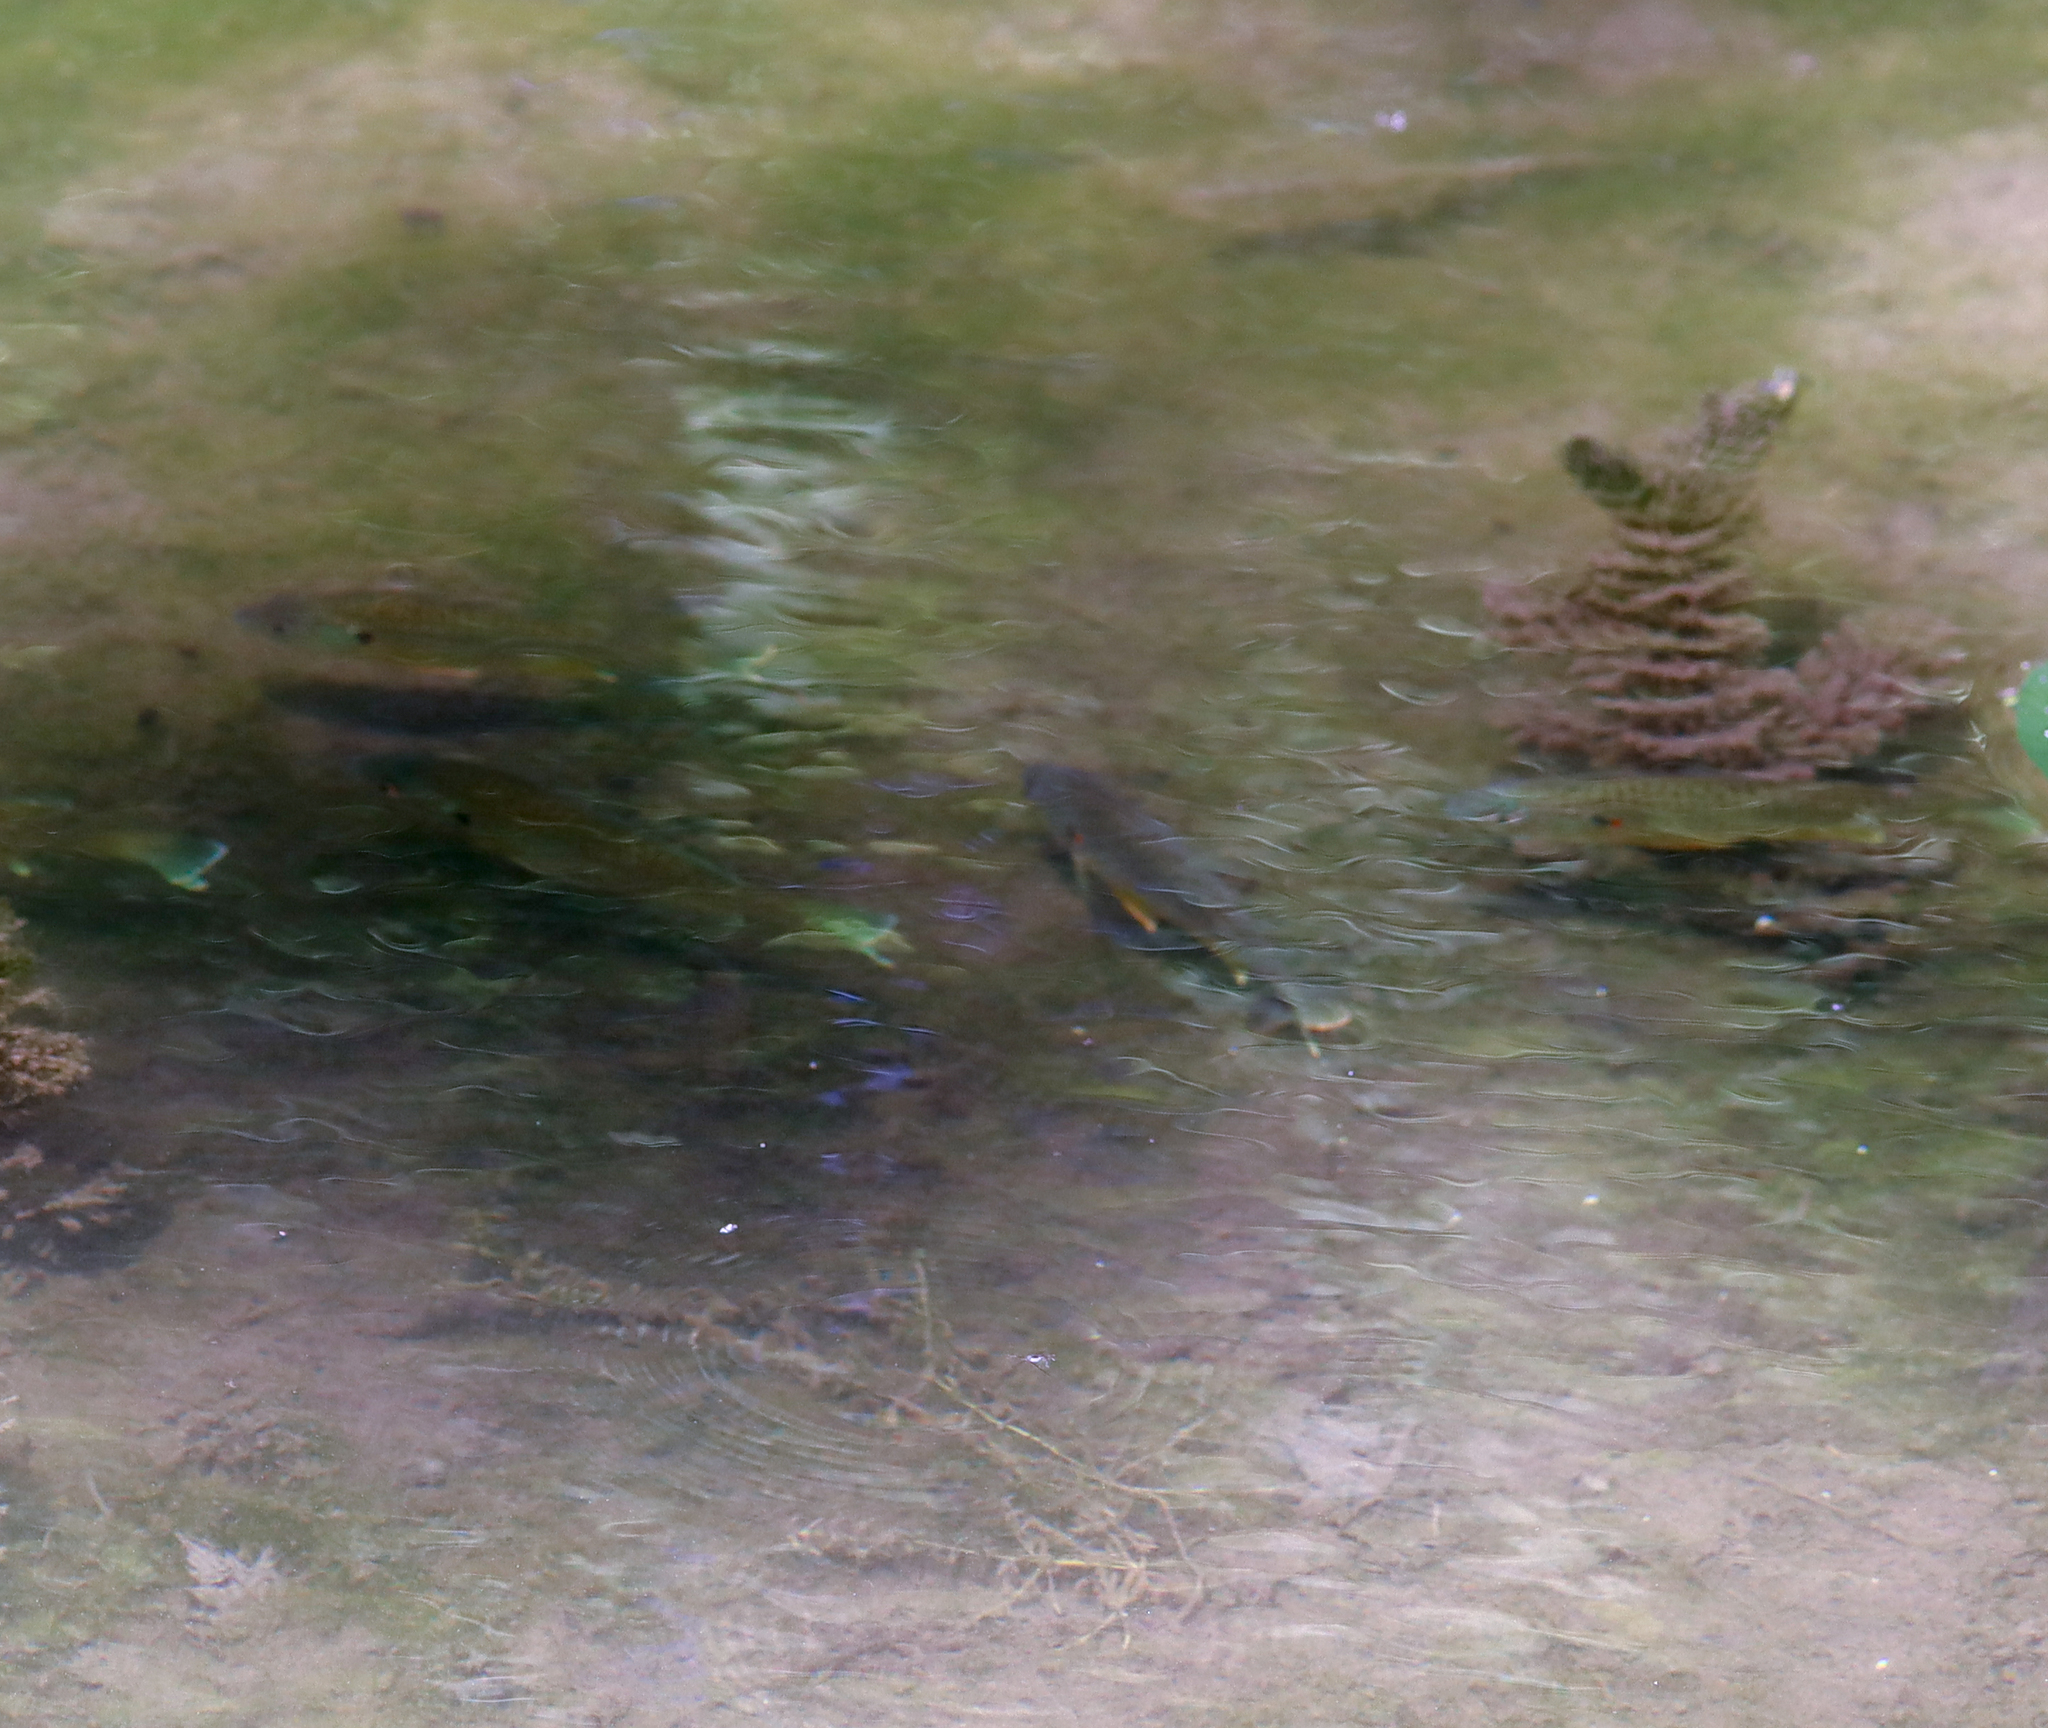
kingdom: Animalia
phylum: Chordata
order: Perciformes
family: Centrarchidae
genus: Lepomis
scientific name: Lepomis gibbosus
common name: Pumpkinseed
